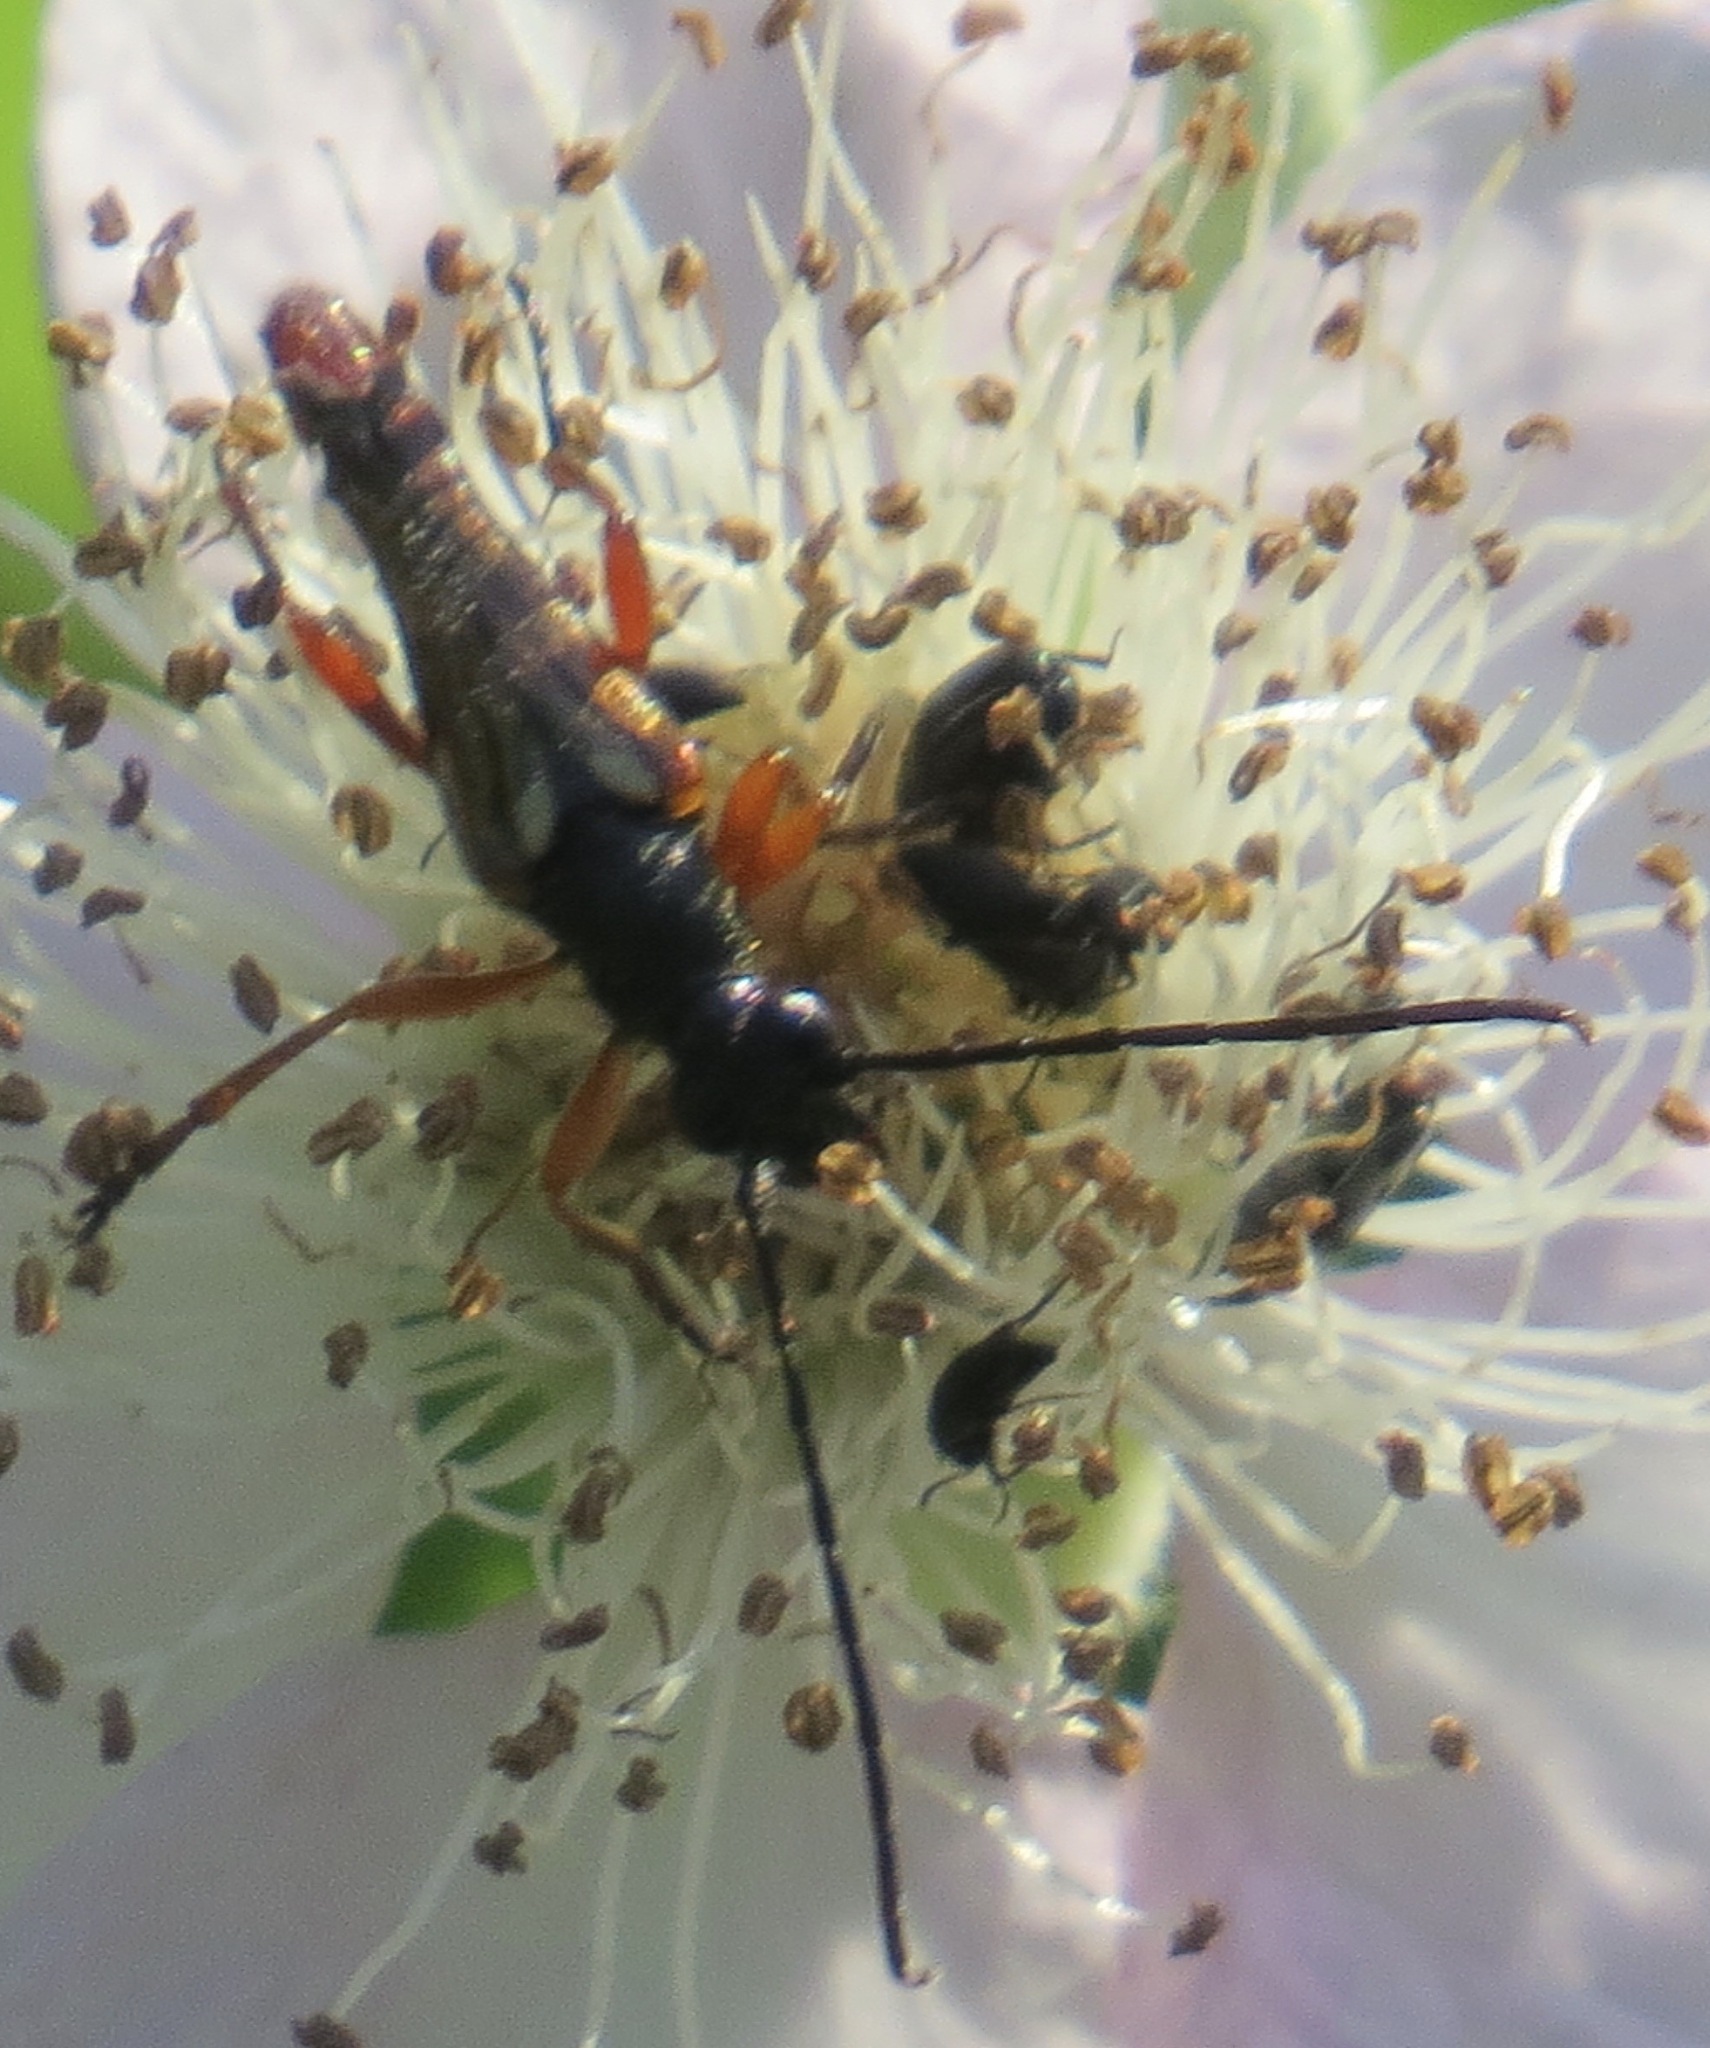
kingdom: Animalia
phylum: Arthropoda
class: Insecta
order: Coleoptera
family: Cerambycidae
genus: Neobellamira
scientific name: Neobellamira delicata
